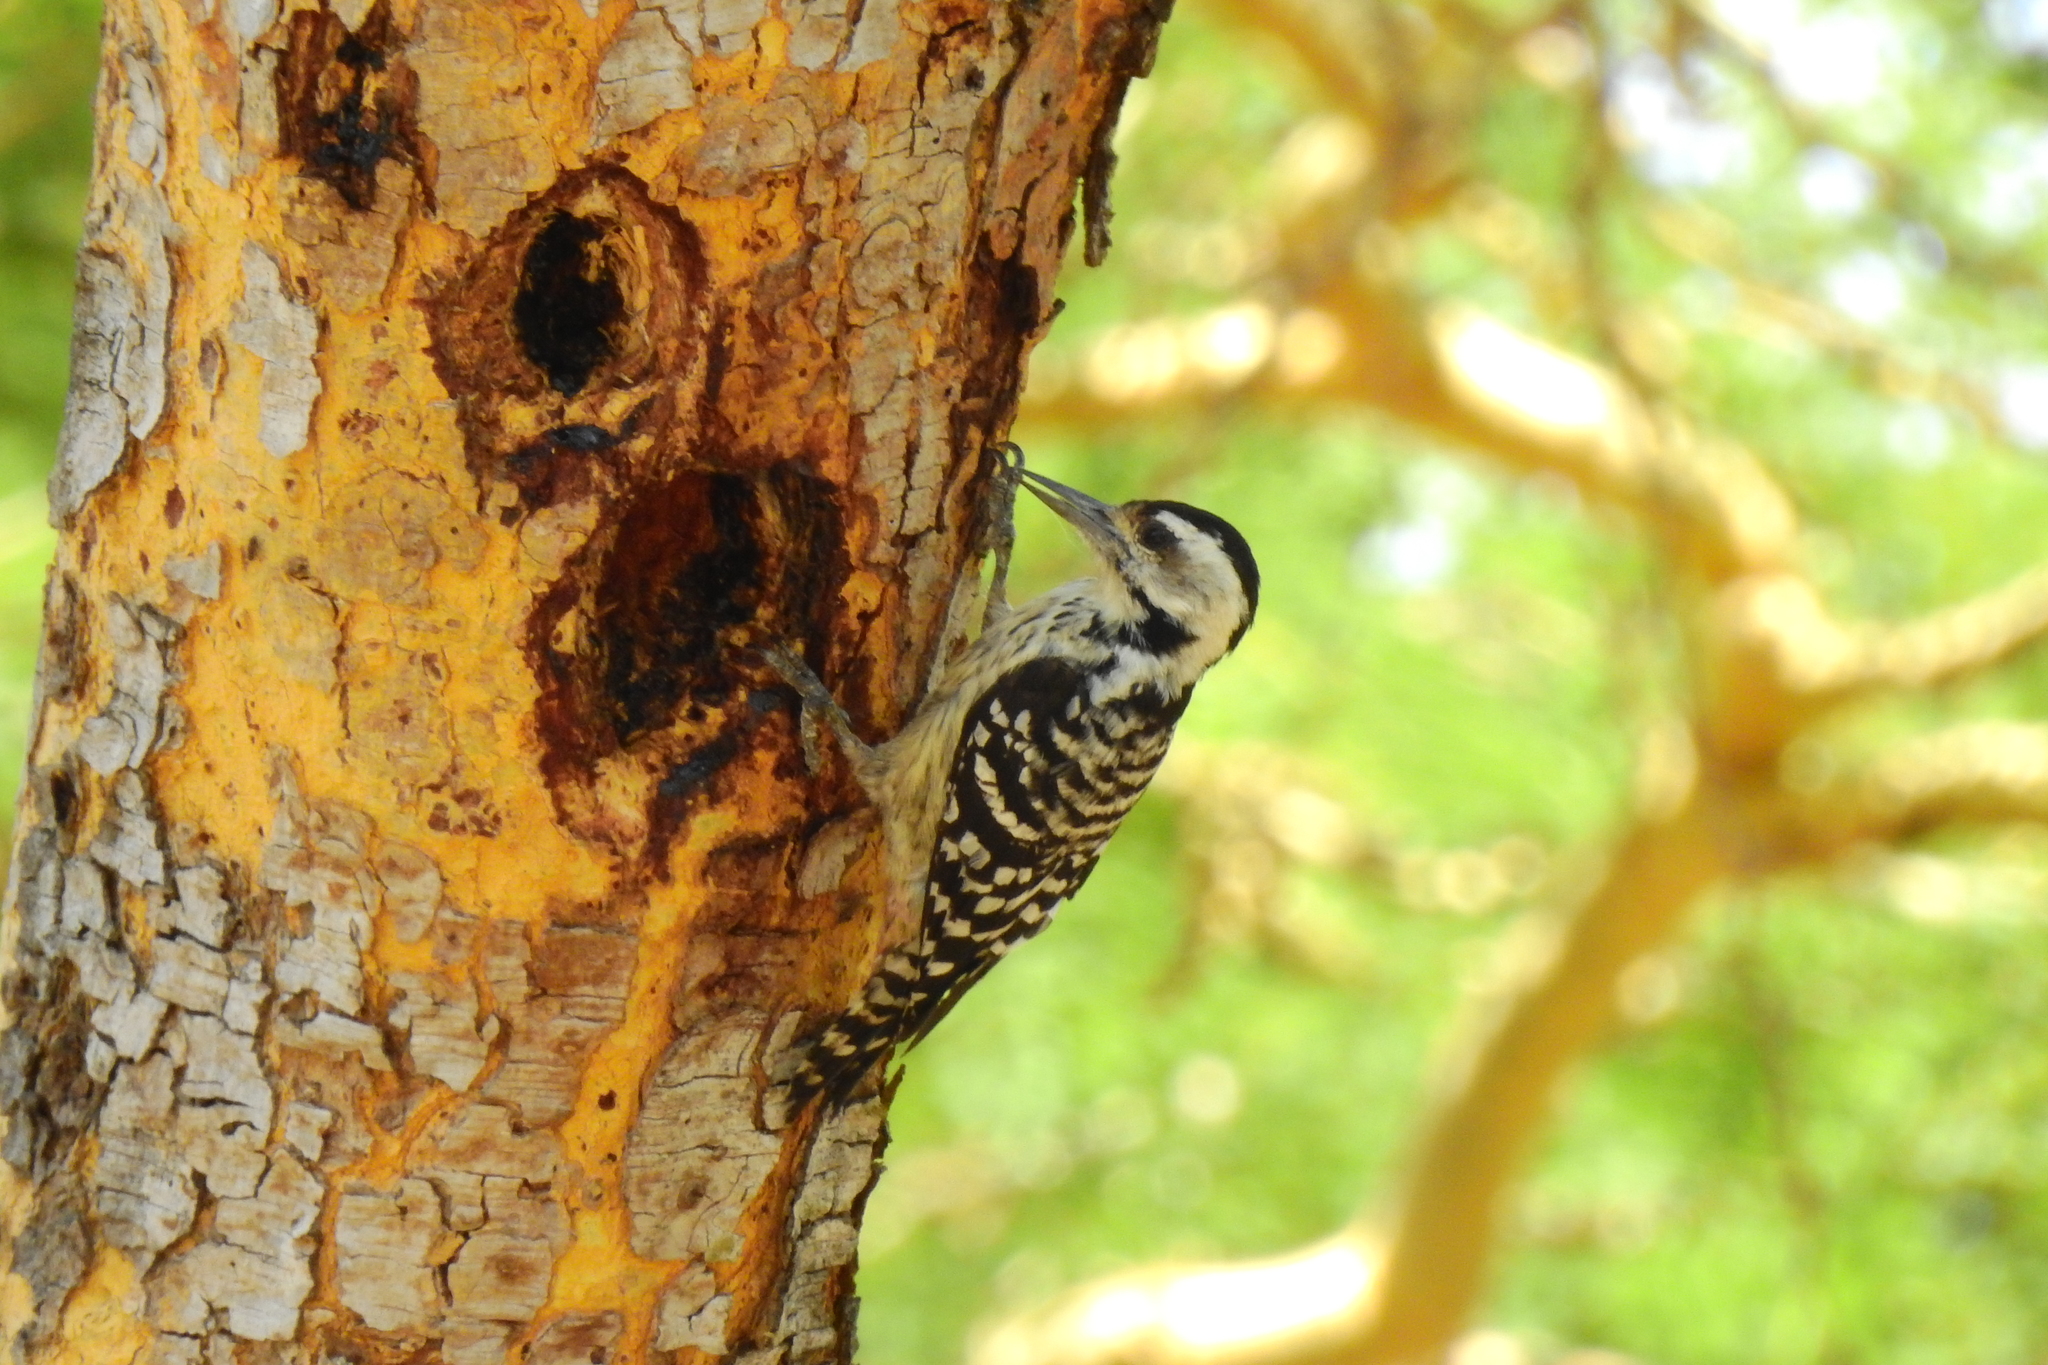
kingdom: Animalia
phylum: Chordata
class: Aves
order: Piciformes
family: Picidae
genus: Dendrocopos
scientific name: Dendrocopos analis
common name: Freckle-breasted woodpecker
